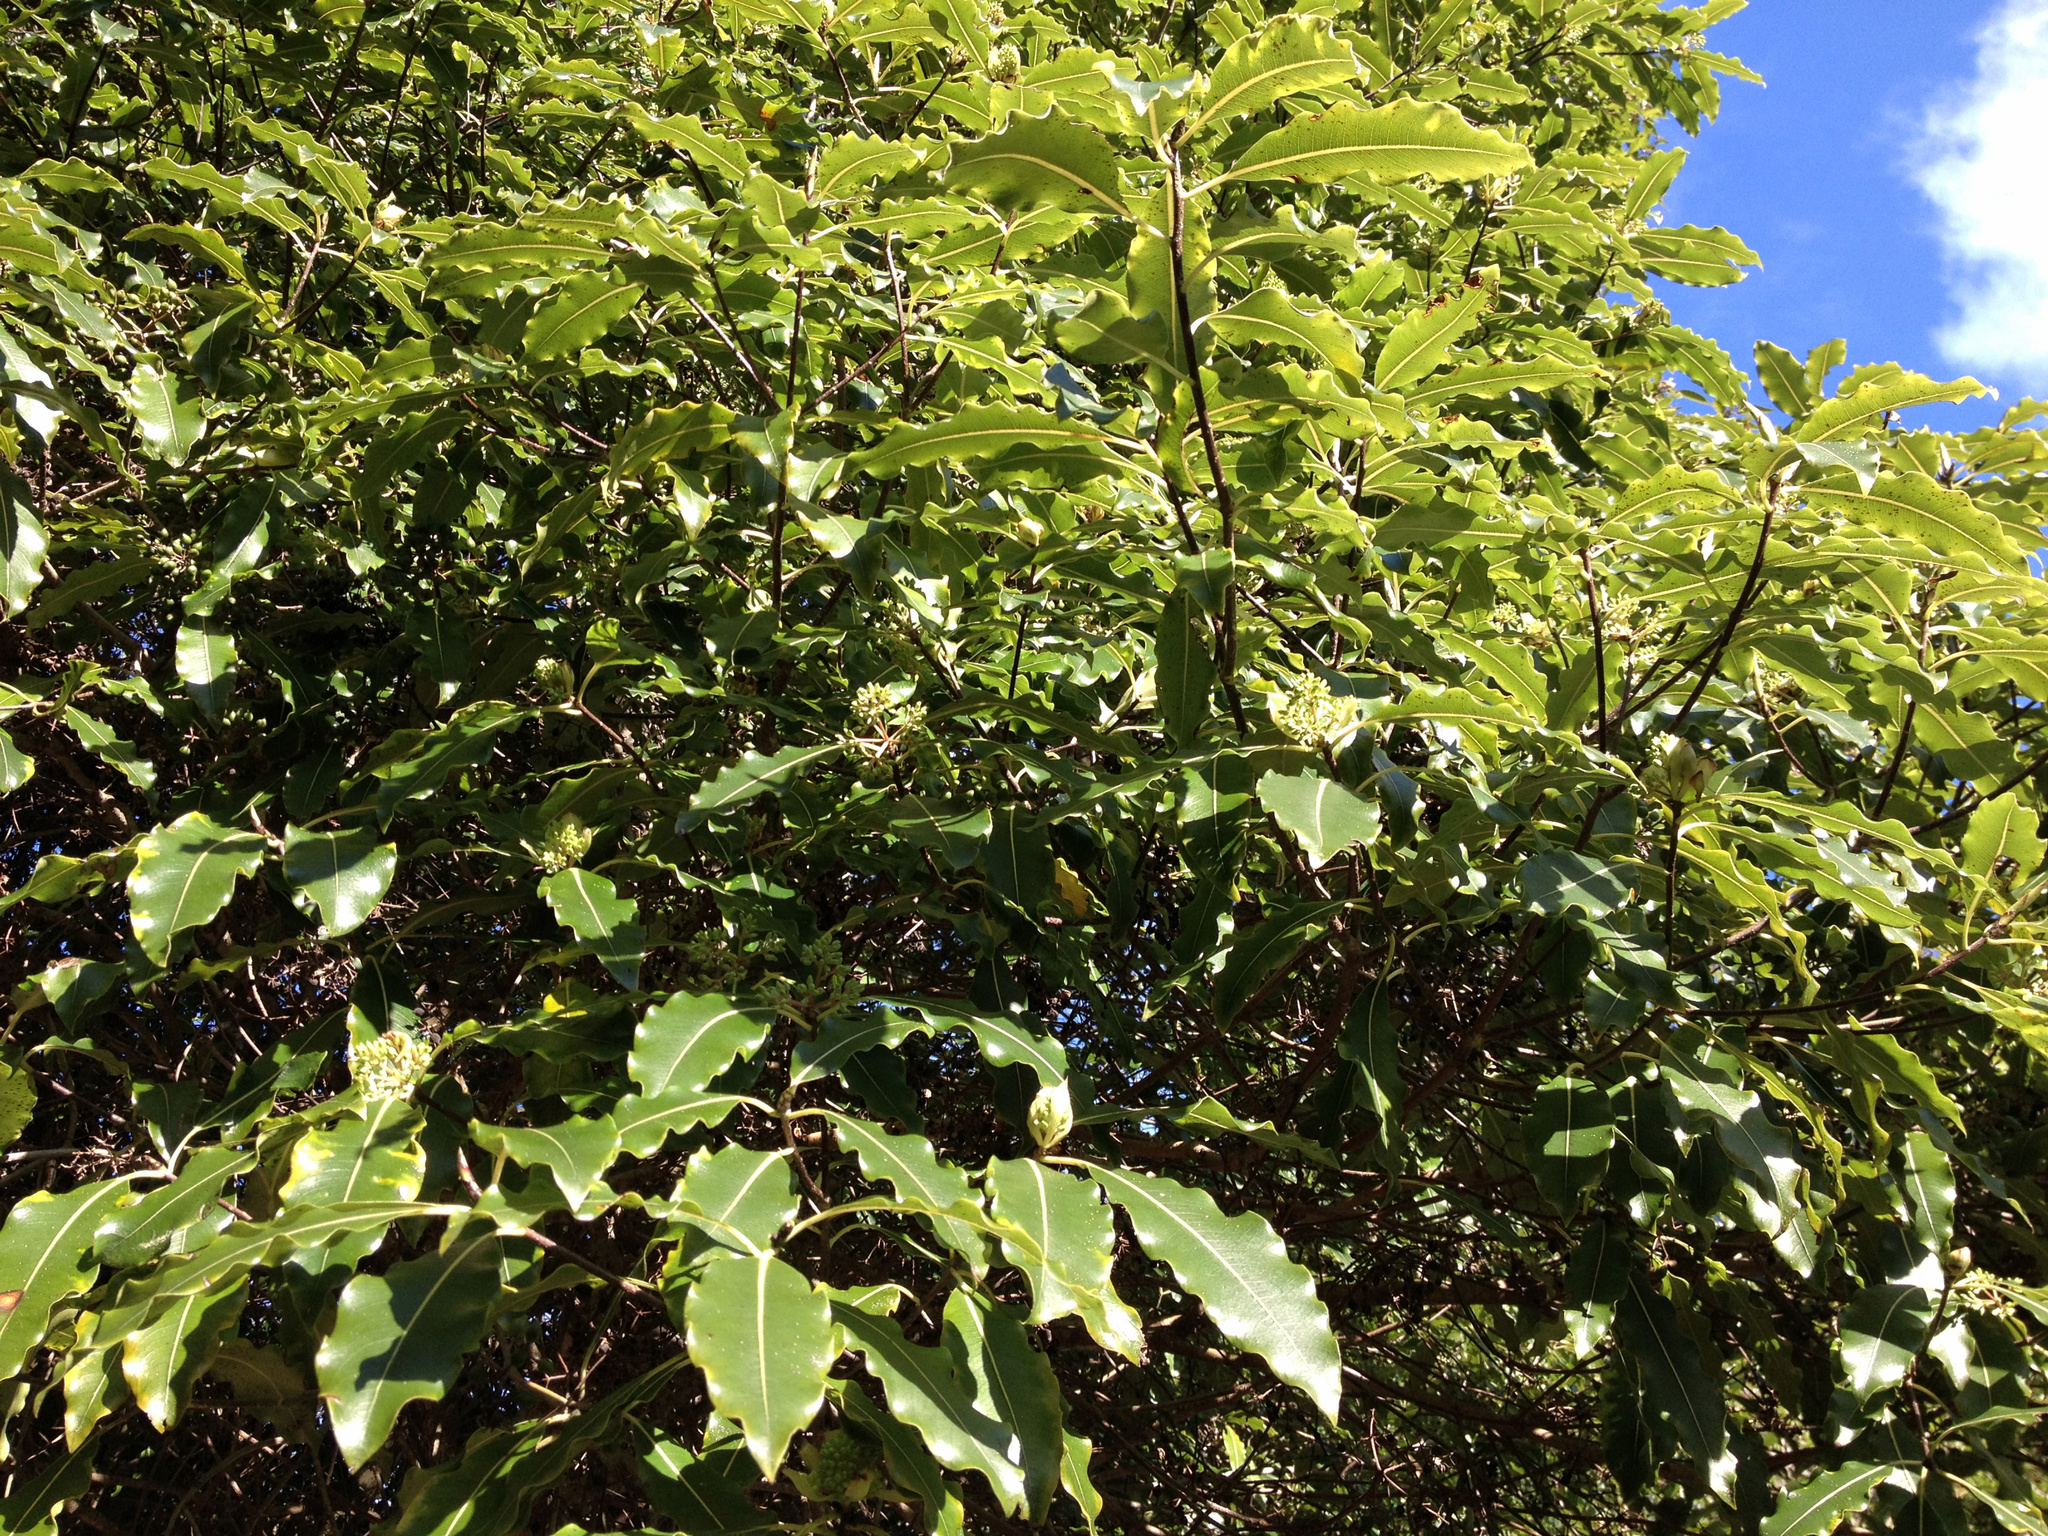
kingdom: Plantae
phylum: Tracheophyta
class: Magnoliopsida
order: Apiales
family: Pittosporaceae
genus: Pittosporum
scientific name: Pittosporum eugenioides
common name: Lemonwood
